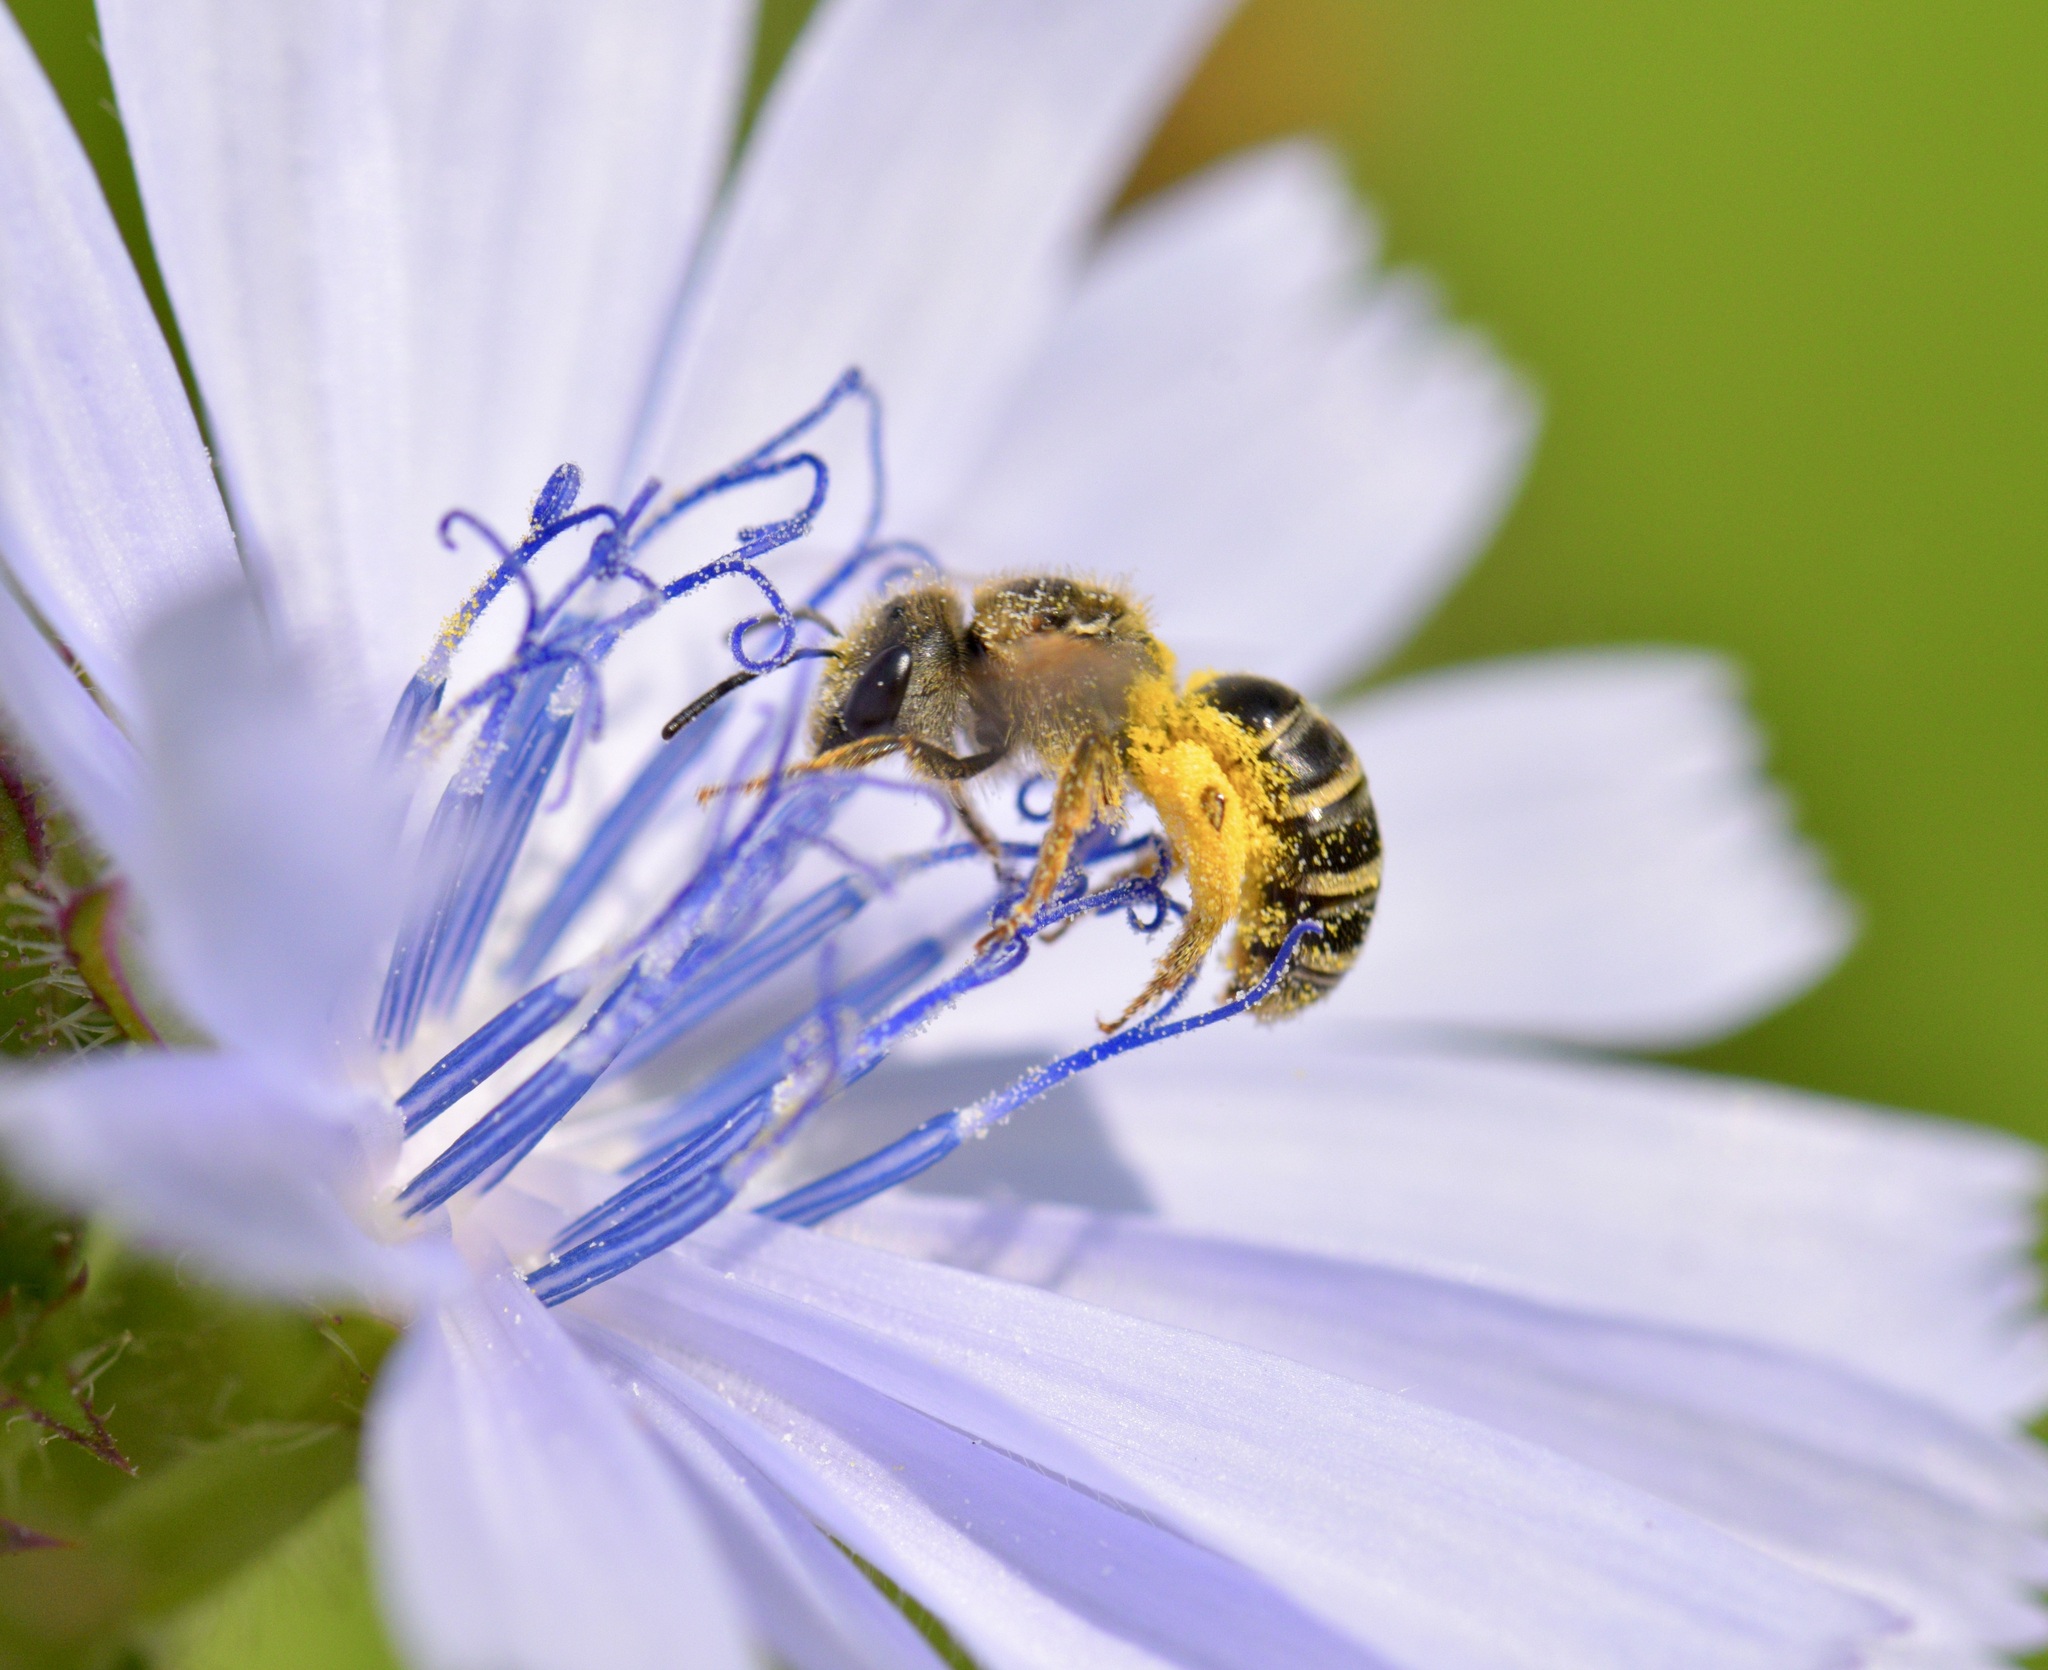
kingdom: Animalia
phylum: Arthropoda
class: Insecta
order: Hymenoptera
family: Halictidae
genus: Halictus
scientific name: Halictus ligatus
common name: Ligated furrow bee
